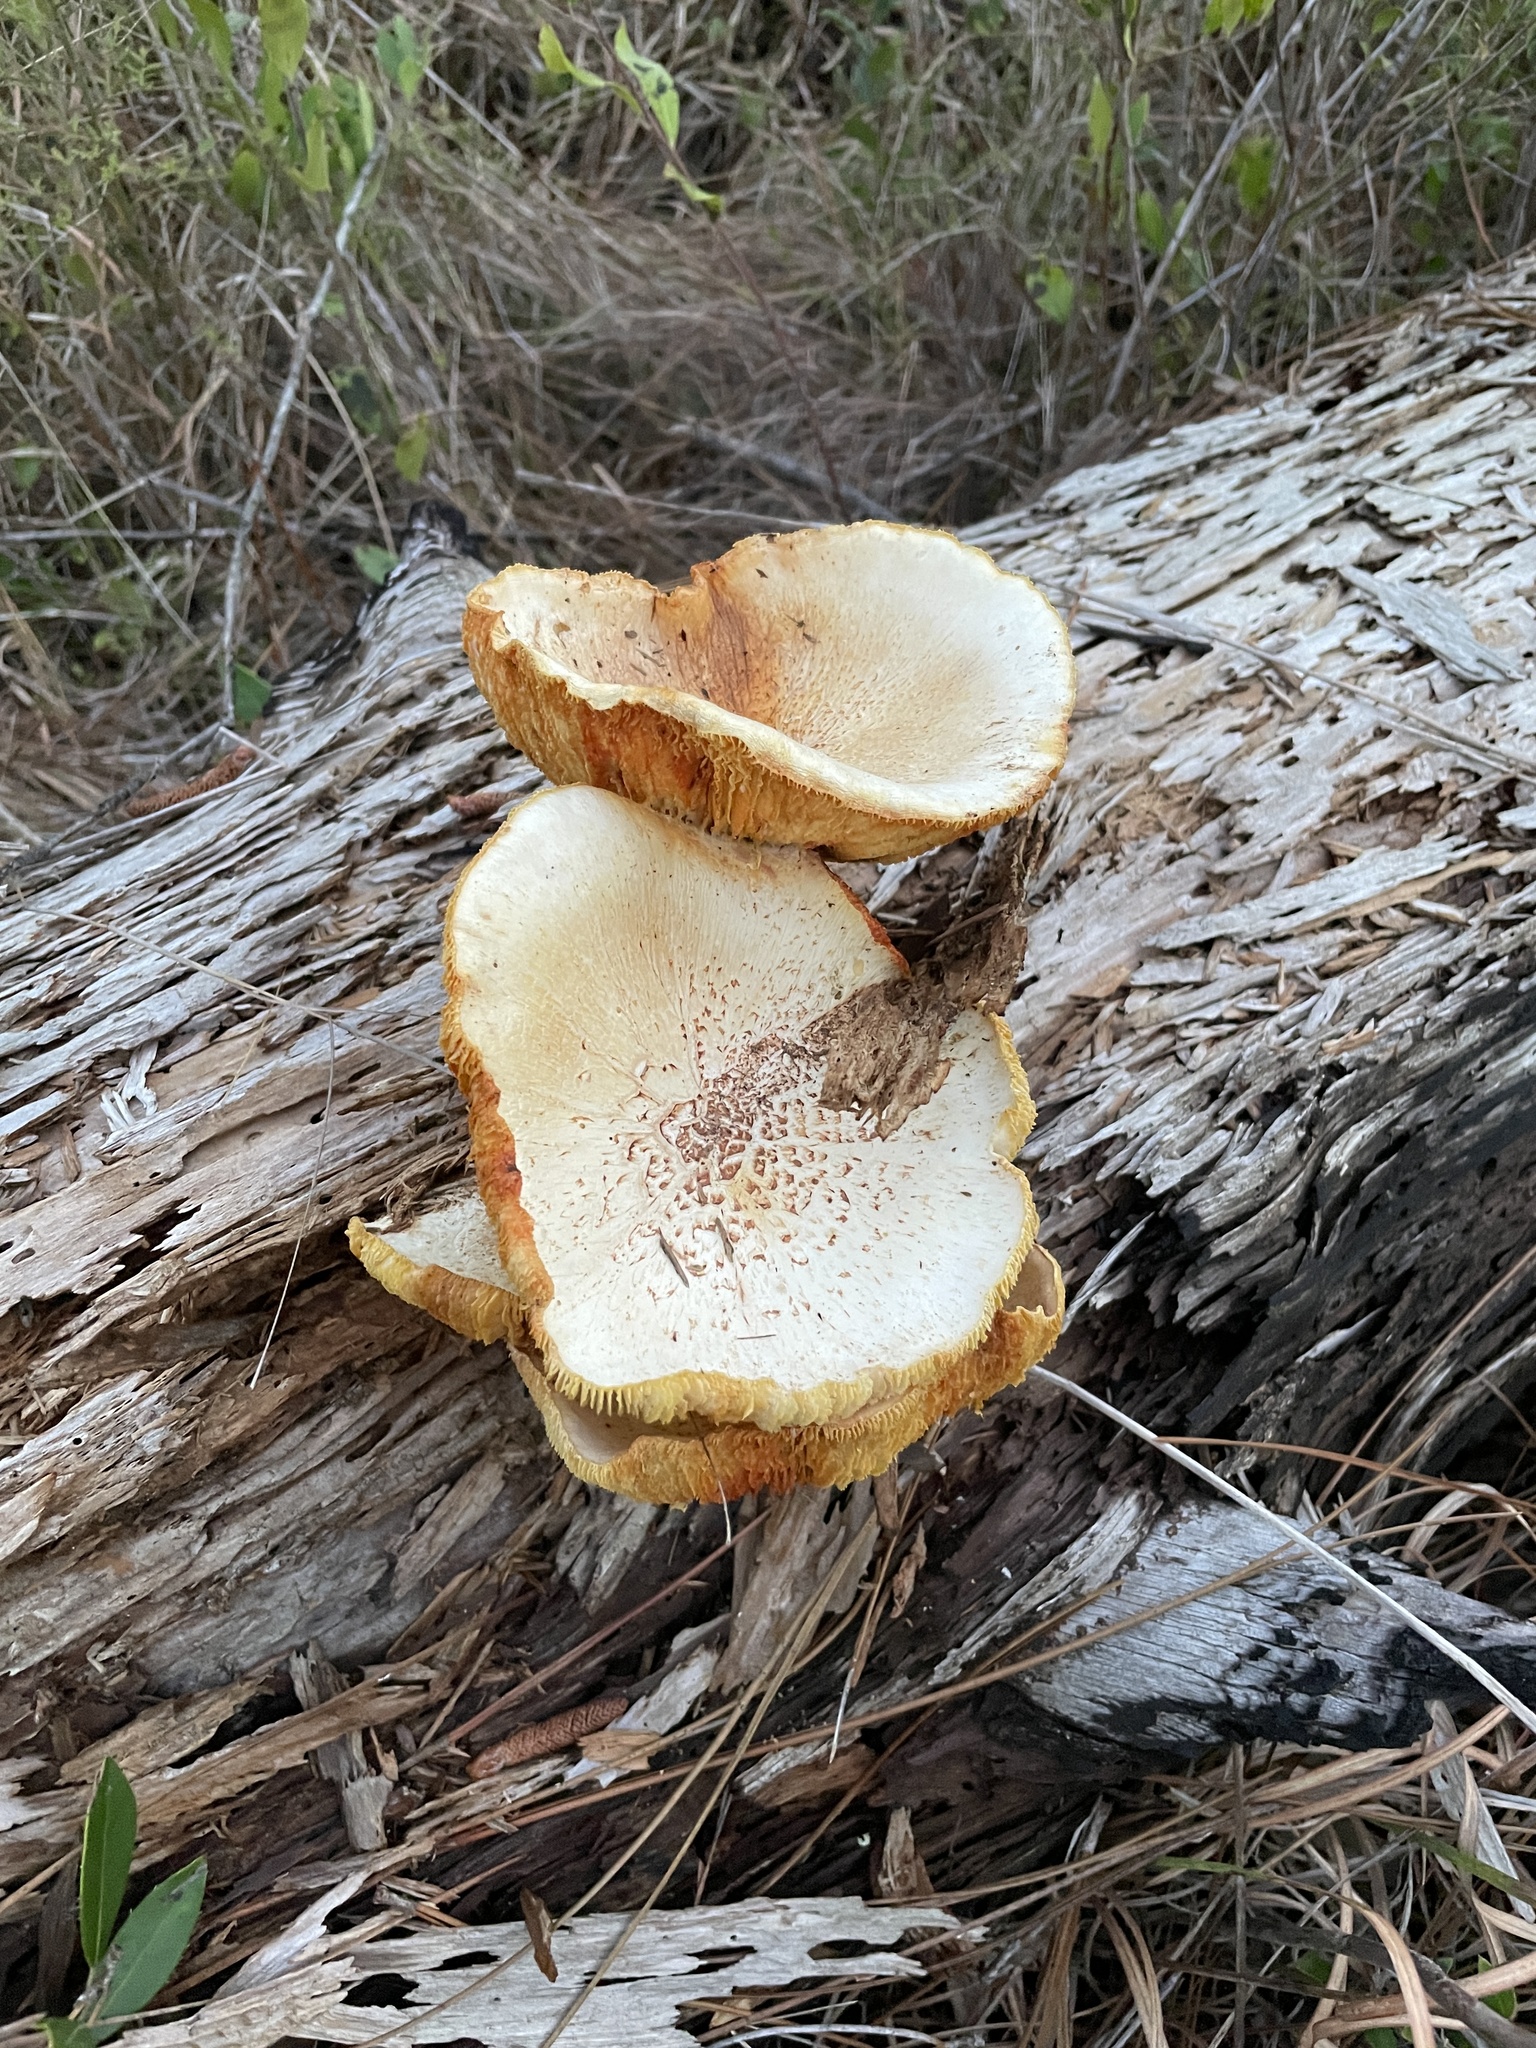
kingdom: Fungi
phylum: Basidiomycota
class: Agaricomycetes
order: Gloeophyllales
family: Gloeophyllaceae
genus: Neolentinus
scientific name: Neolentinus lepideus
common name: Scaly sawgill
